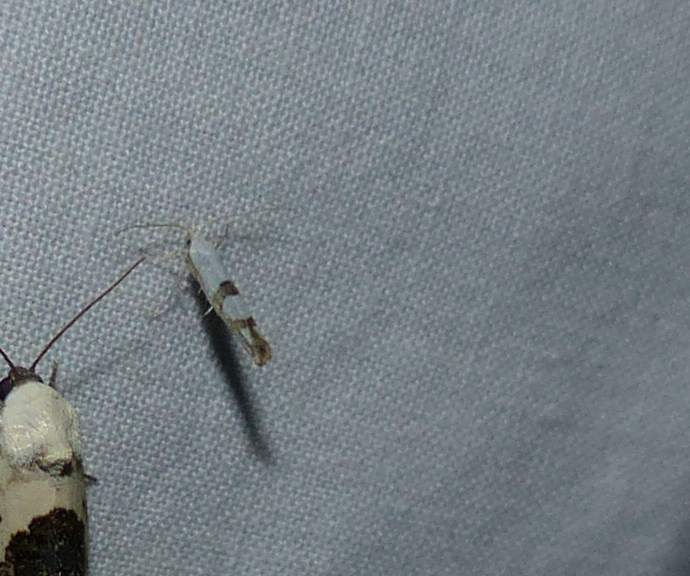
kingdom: Animalia
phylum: Arthropoda
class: Insecta
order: Lepidoptera
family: Argyresthiidae
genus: Argyresthia
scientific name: Argyresthia oreasella
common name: Cherry shoot borer moth
